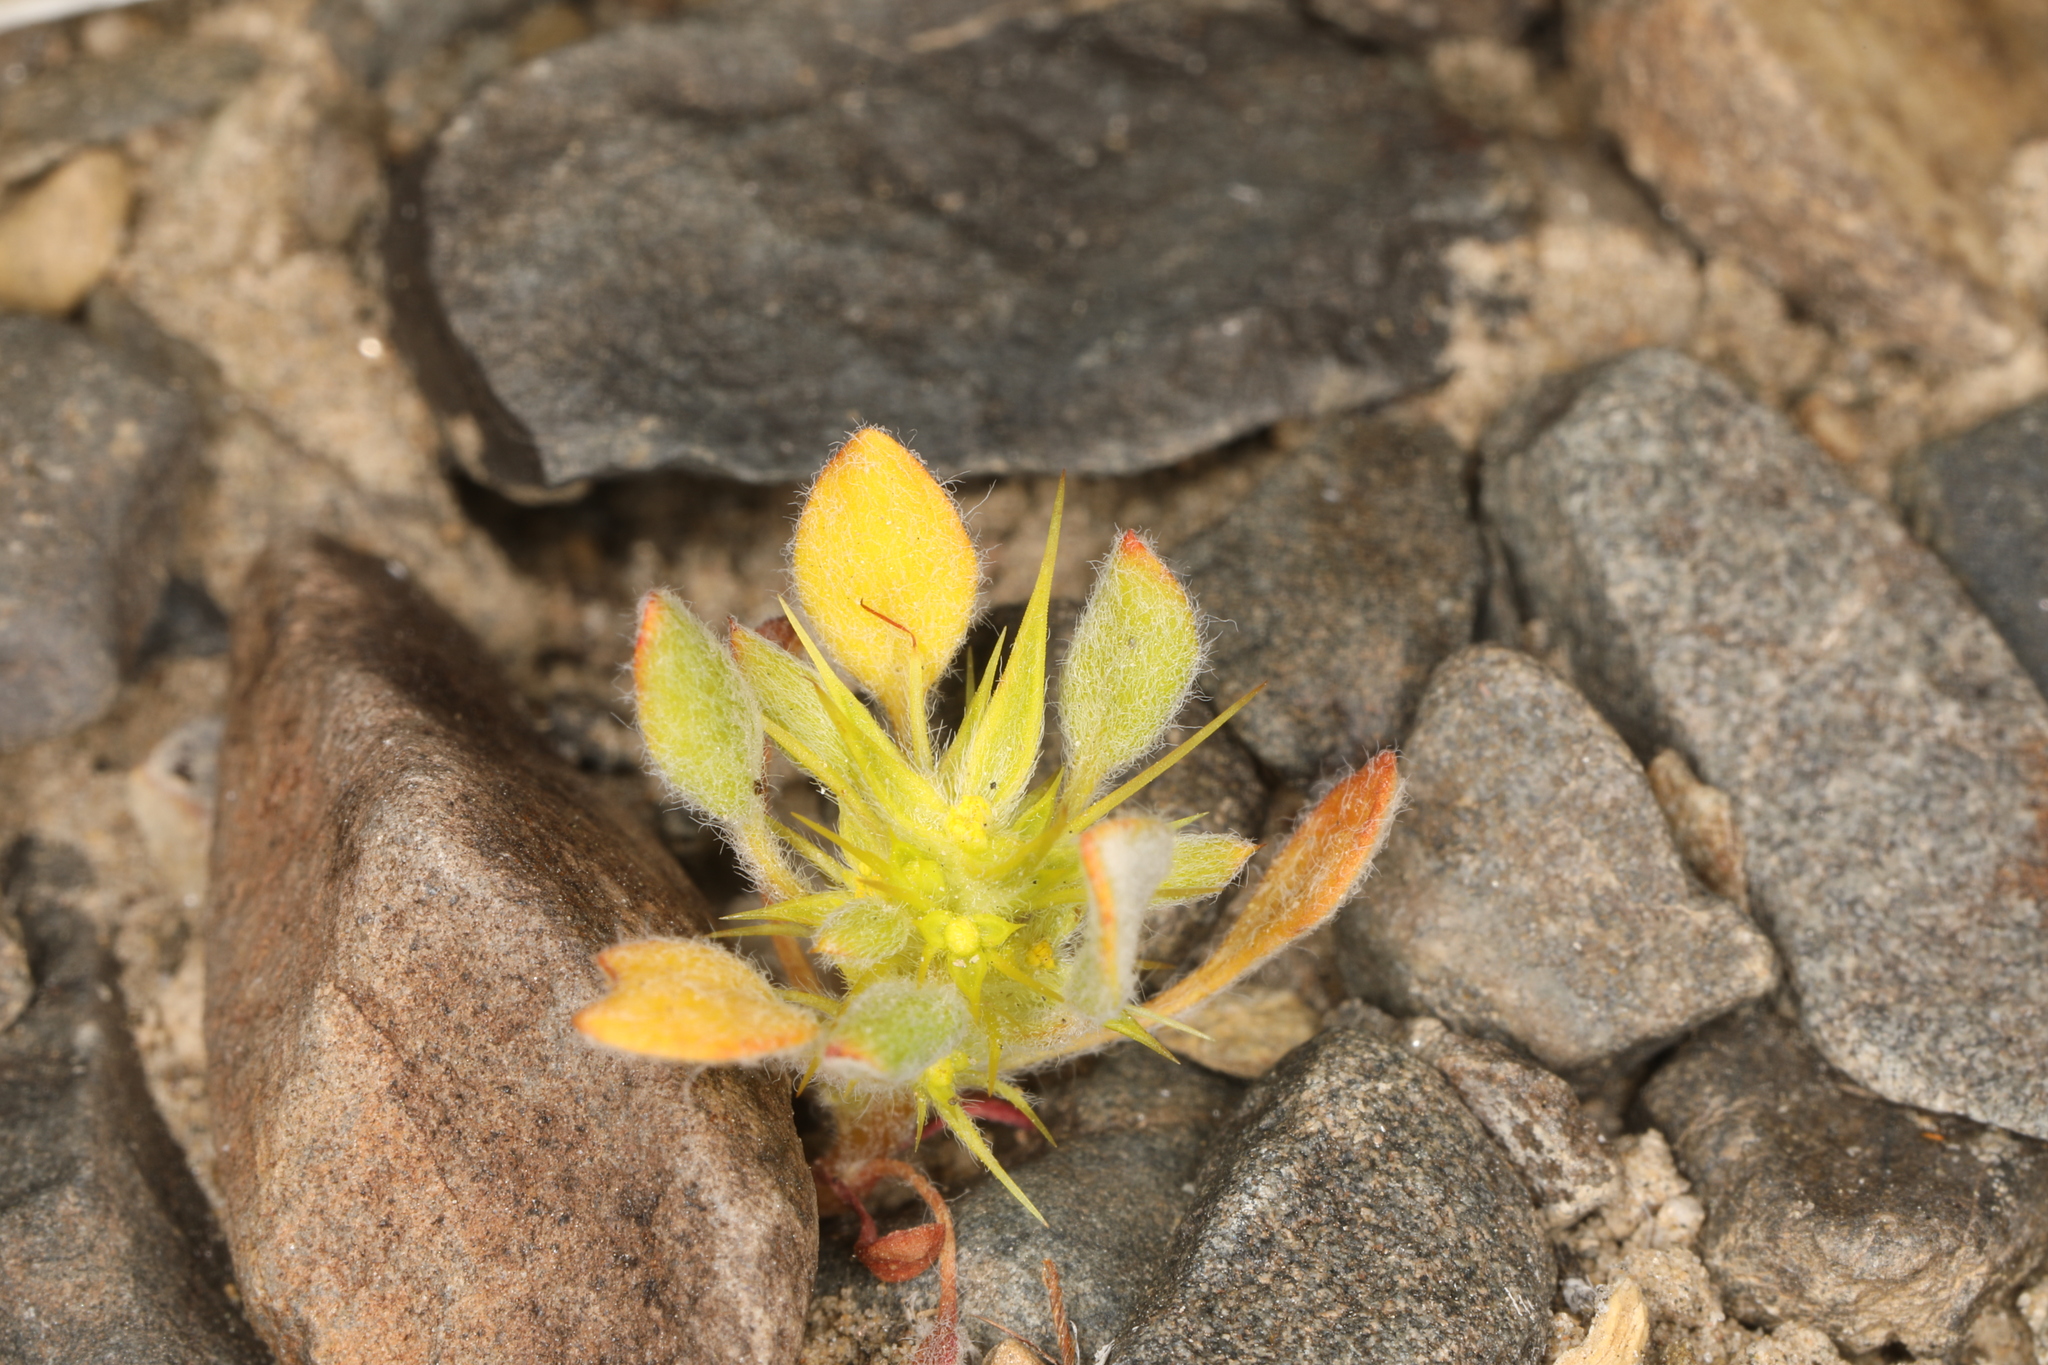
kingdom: Plantae
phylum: Tracheophyta
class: Magnoliopsida
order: Caryophyllales
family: Polygonaceae
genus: Chorizanthe
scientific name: Chorizanthe rigida
